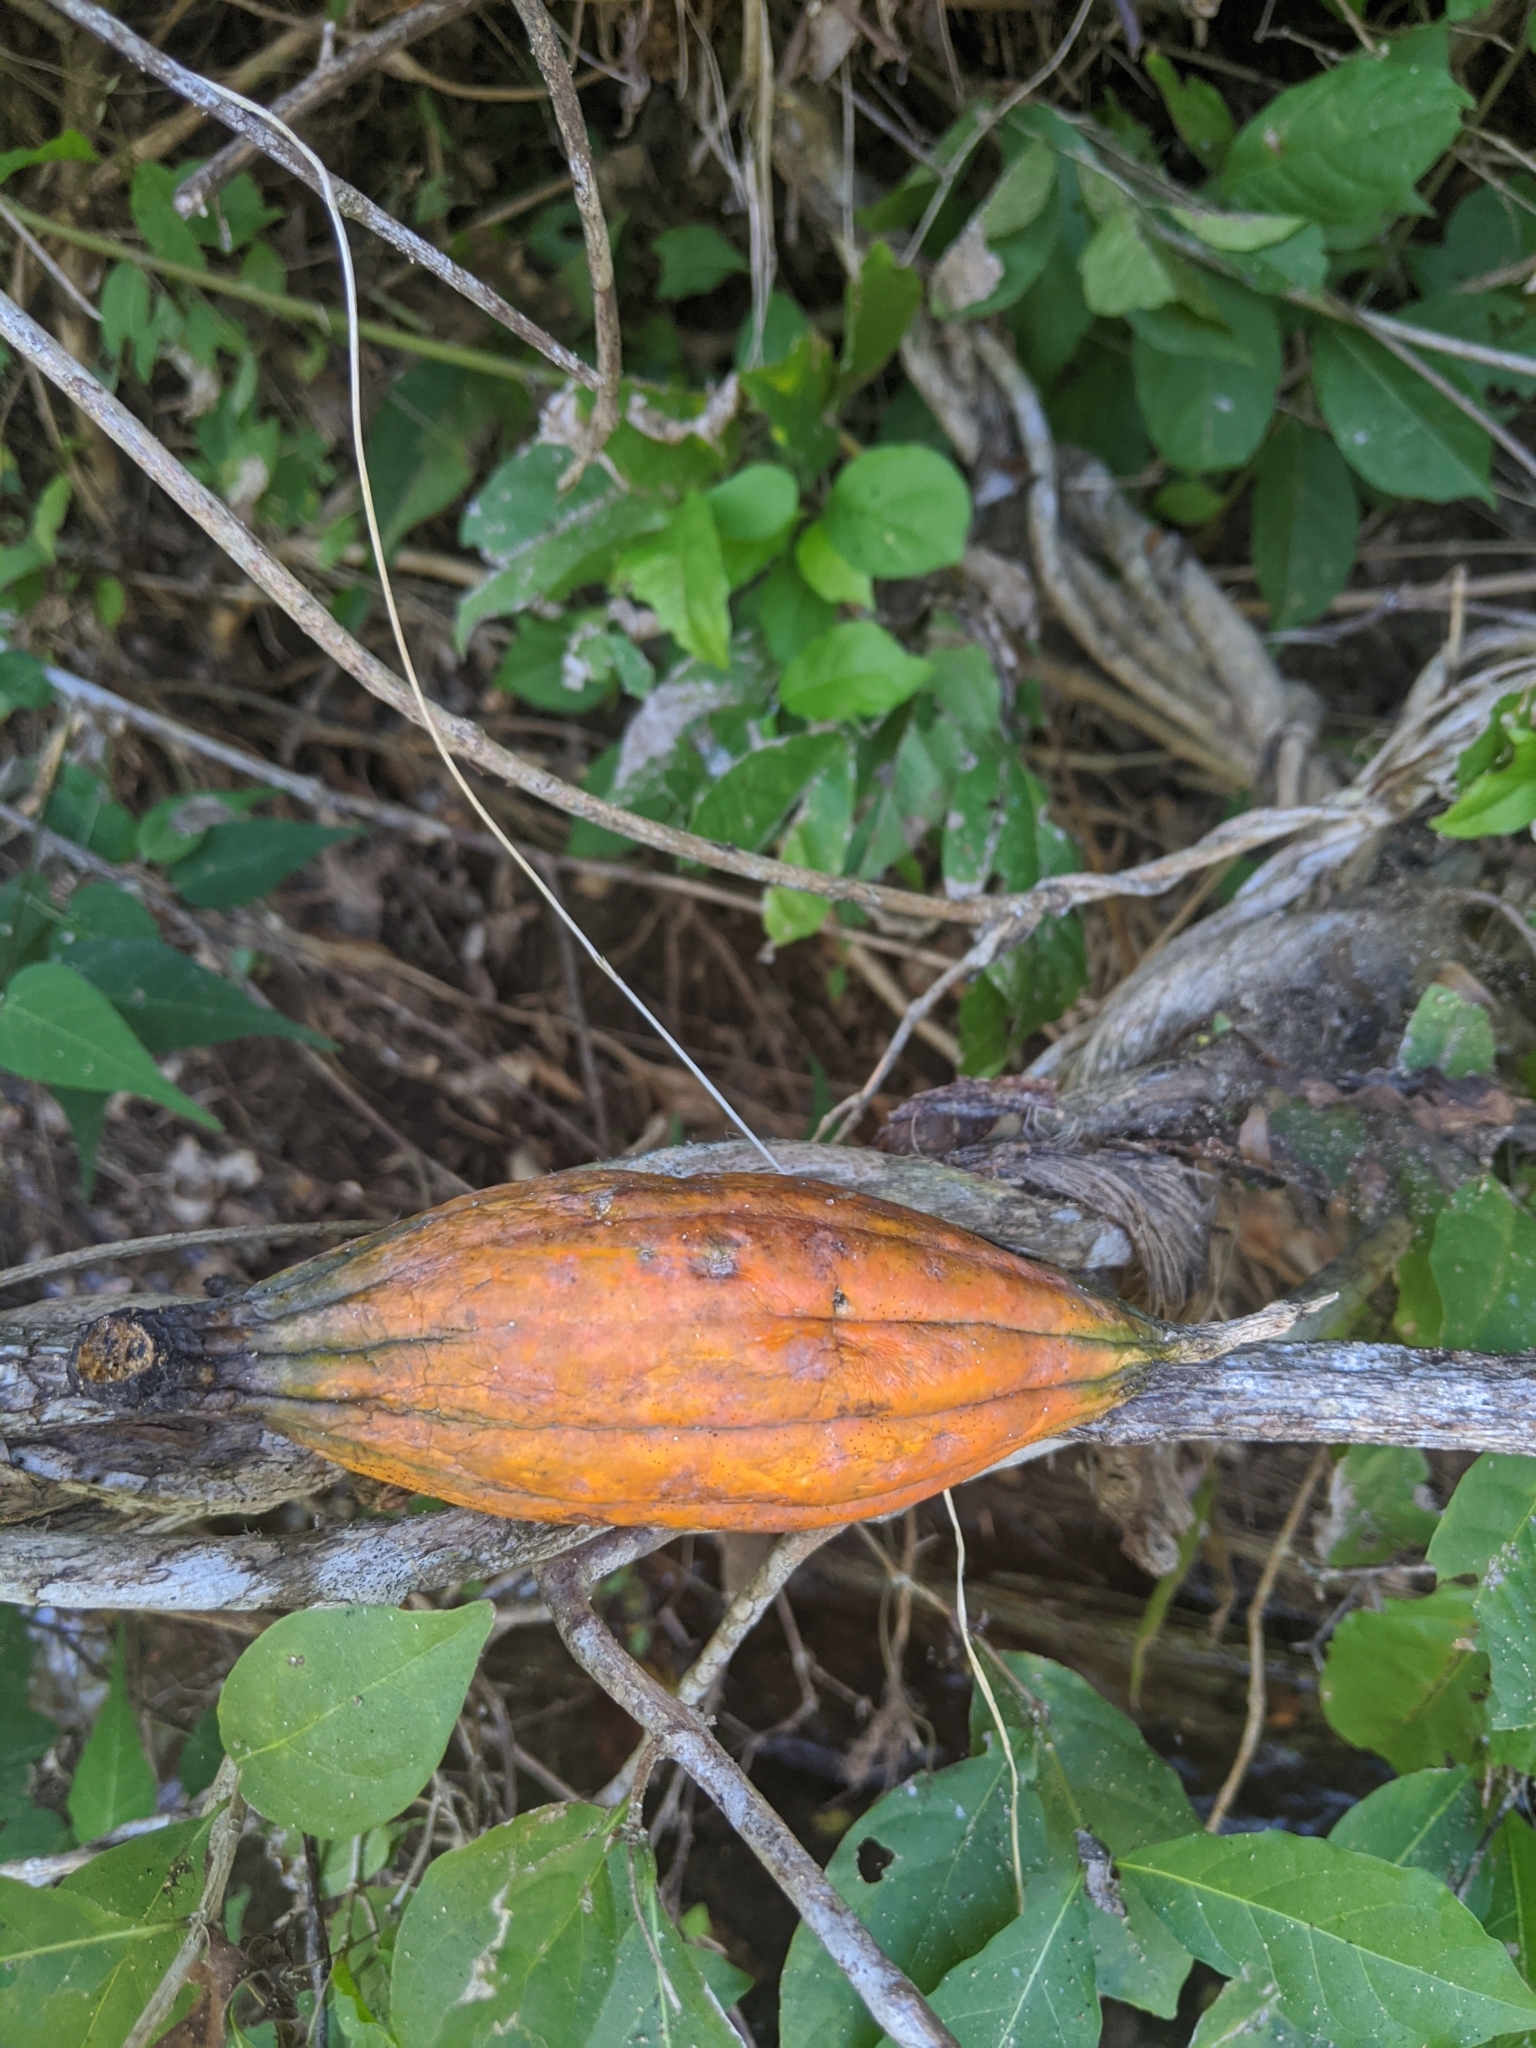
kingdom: Plantae
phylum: Tracheophyta
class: Magnoliopsida
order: Cucurbitales
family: Cucurbitaceae
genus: Ibervillea
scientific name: Ibervillea fusiformis
